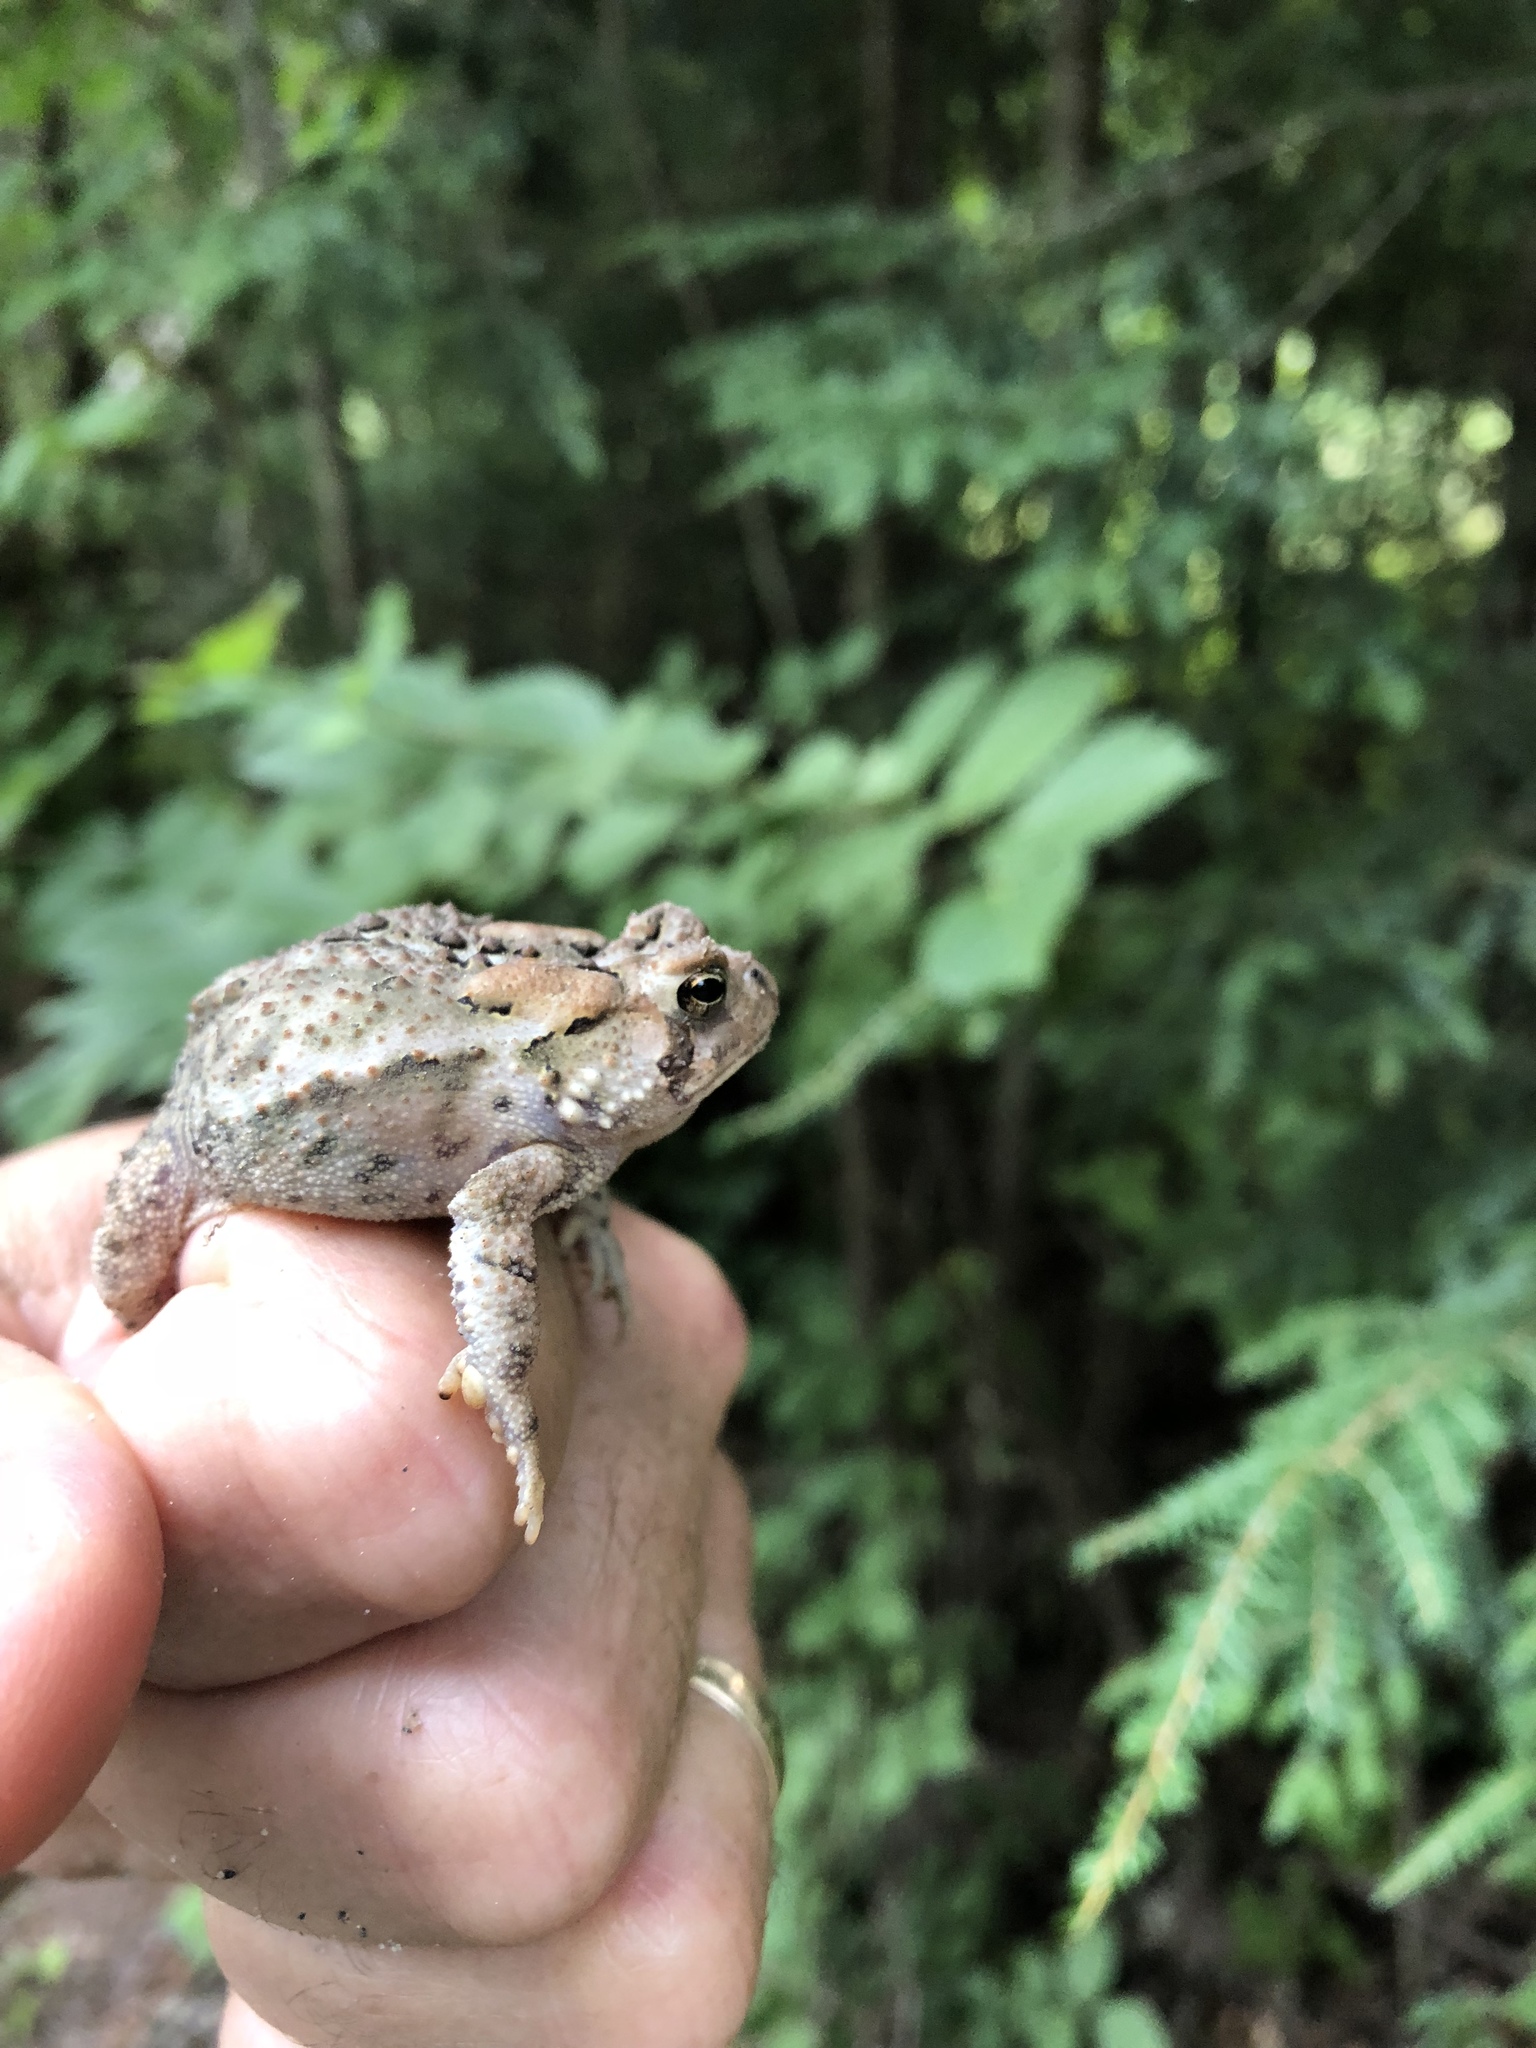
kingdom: Animalia
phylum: Chordata
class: Amphibia
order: Anura
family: Bufonidae
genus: Anaxyrus
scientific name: Anaxyrus americanus
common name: American toad
